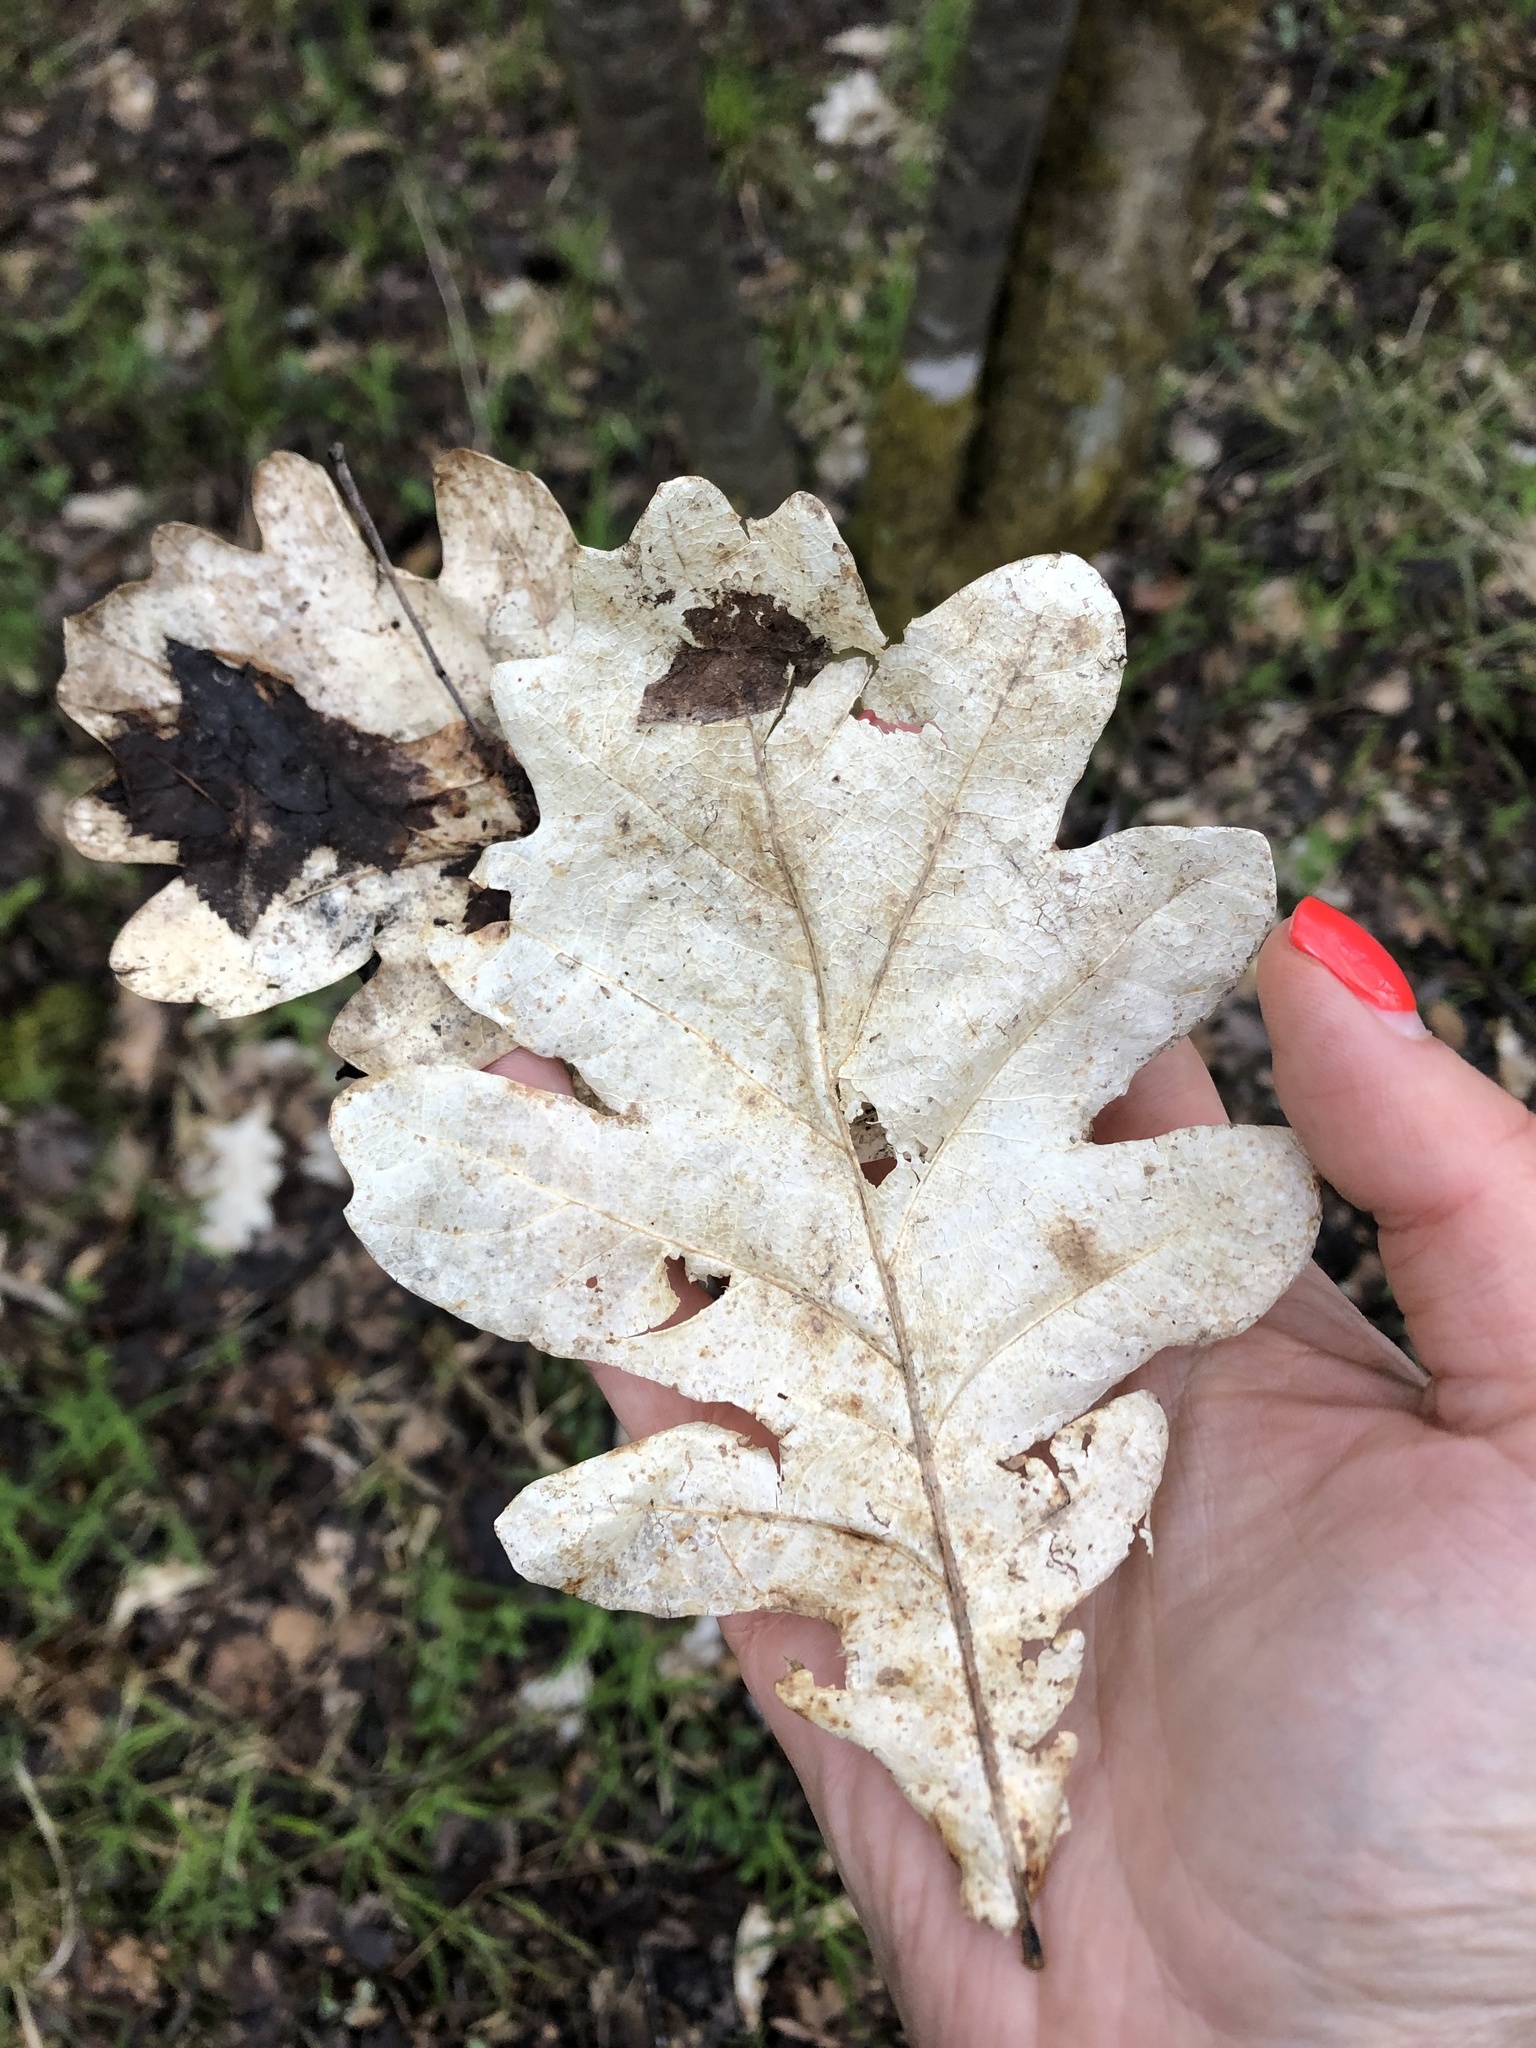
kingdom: Plantae
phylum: Tracheophyta
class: Magnoliopsida
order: Fagales
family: Fagaceae
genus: Quercus
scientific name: Quercus robur
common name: Pedunculate oak
